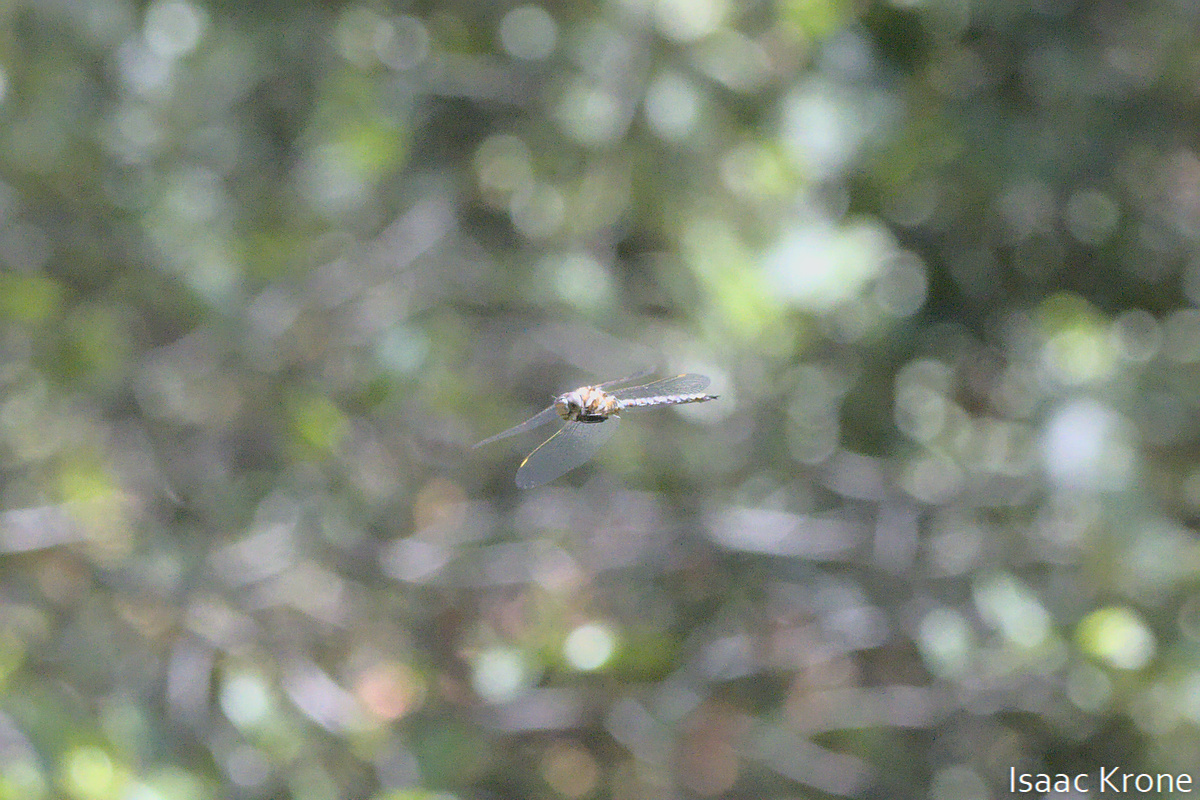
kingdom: Animalia
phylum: Arthropoda
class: Insecta
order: Odonata
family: Aeshnidae
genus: Rhionaeschna
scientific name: Rhionaeschna multicolor
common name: Blue-eyed darner
